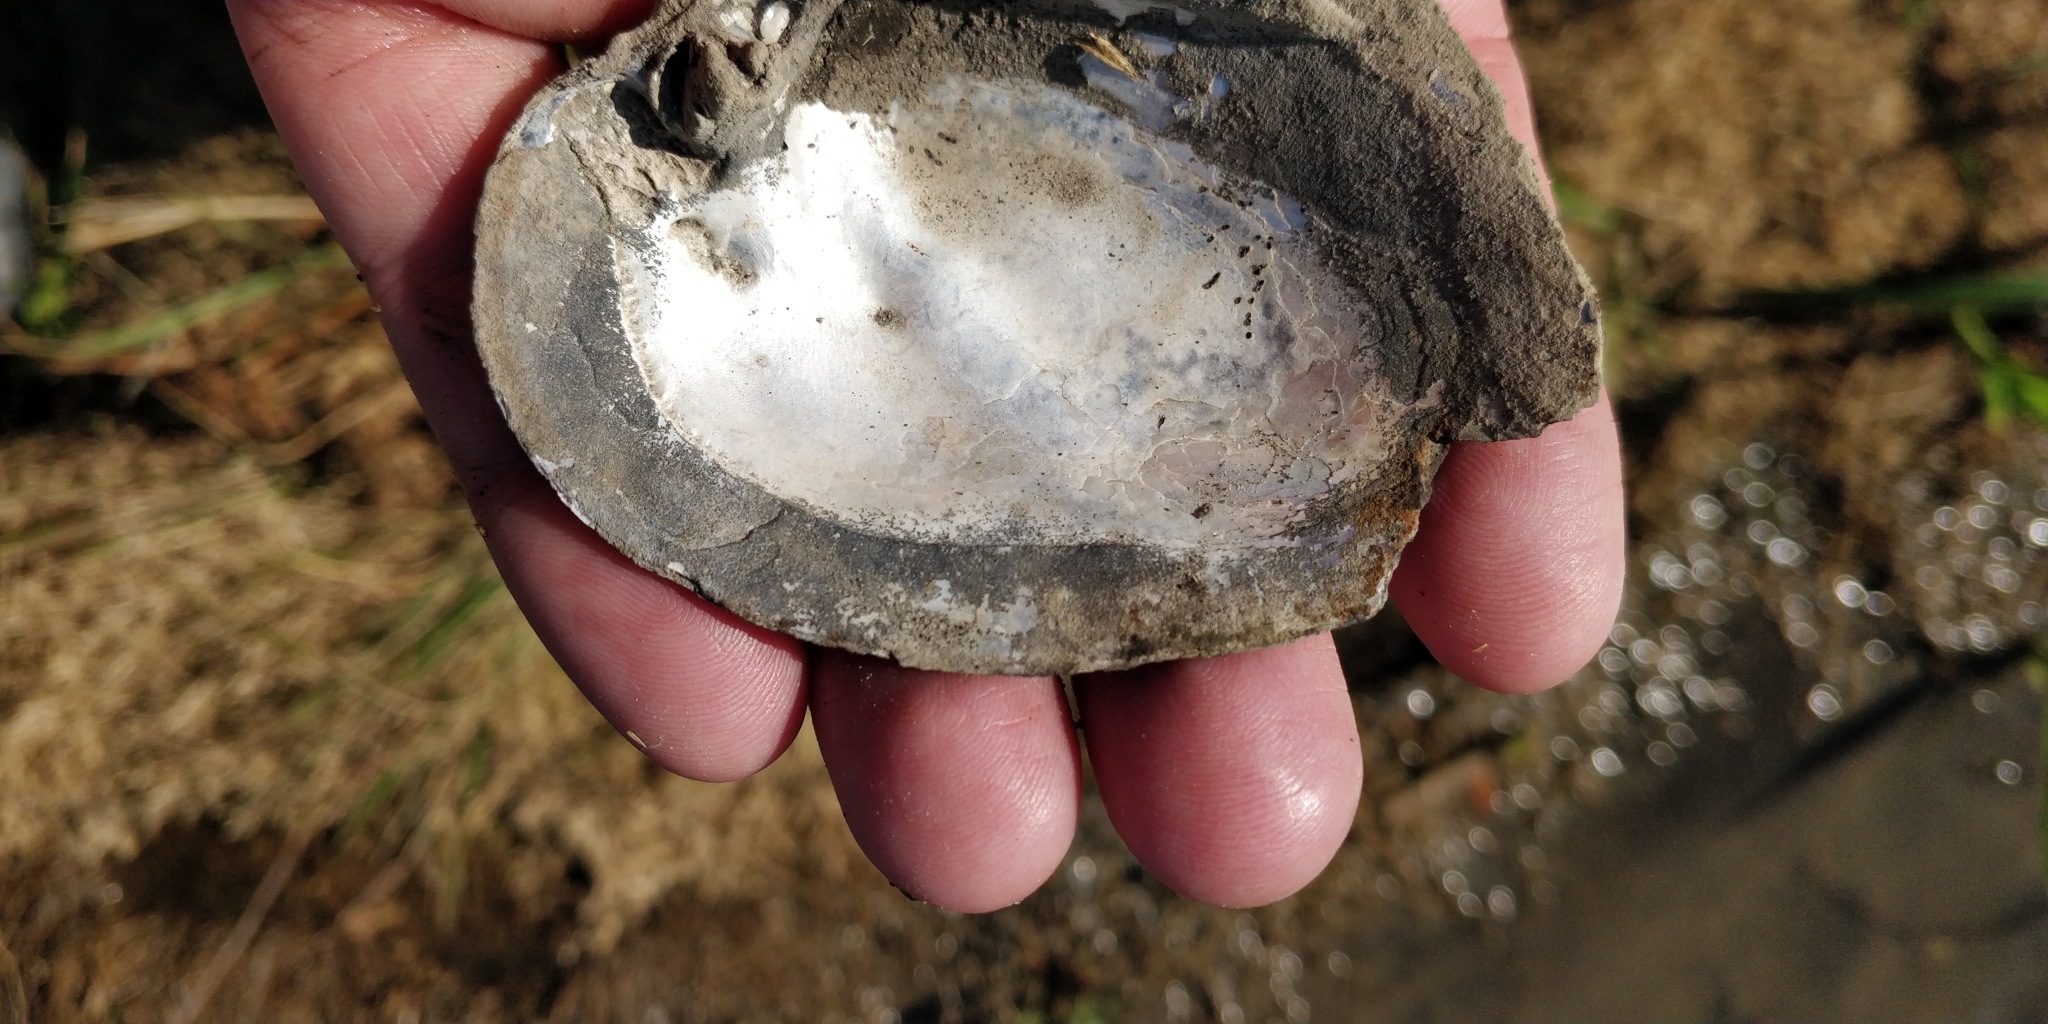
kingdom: Animalia
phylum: Mollusca
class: Bivalvia
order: Unionida
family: Unionidae
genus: Amblema
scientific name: Amblema plicata
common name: Threeridge
